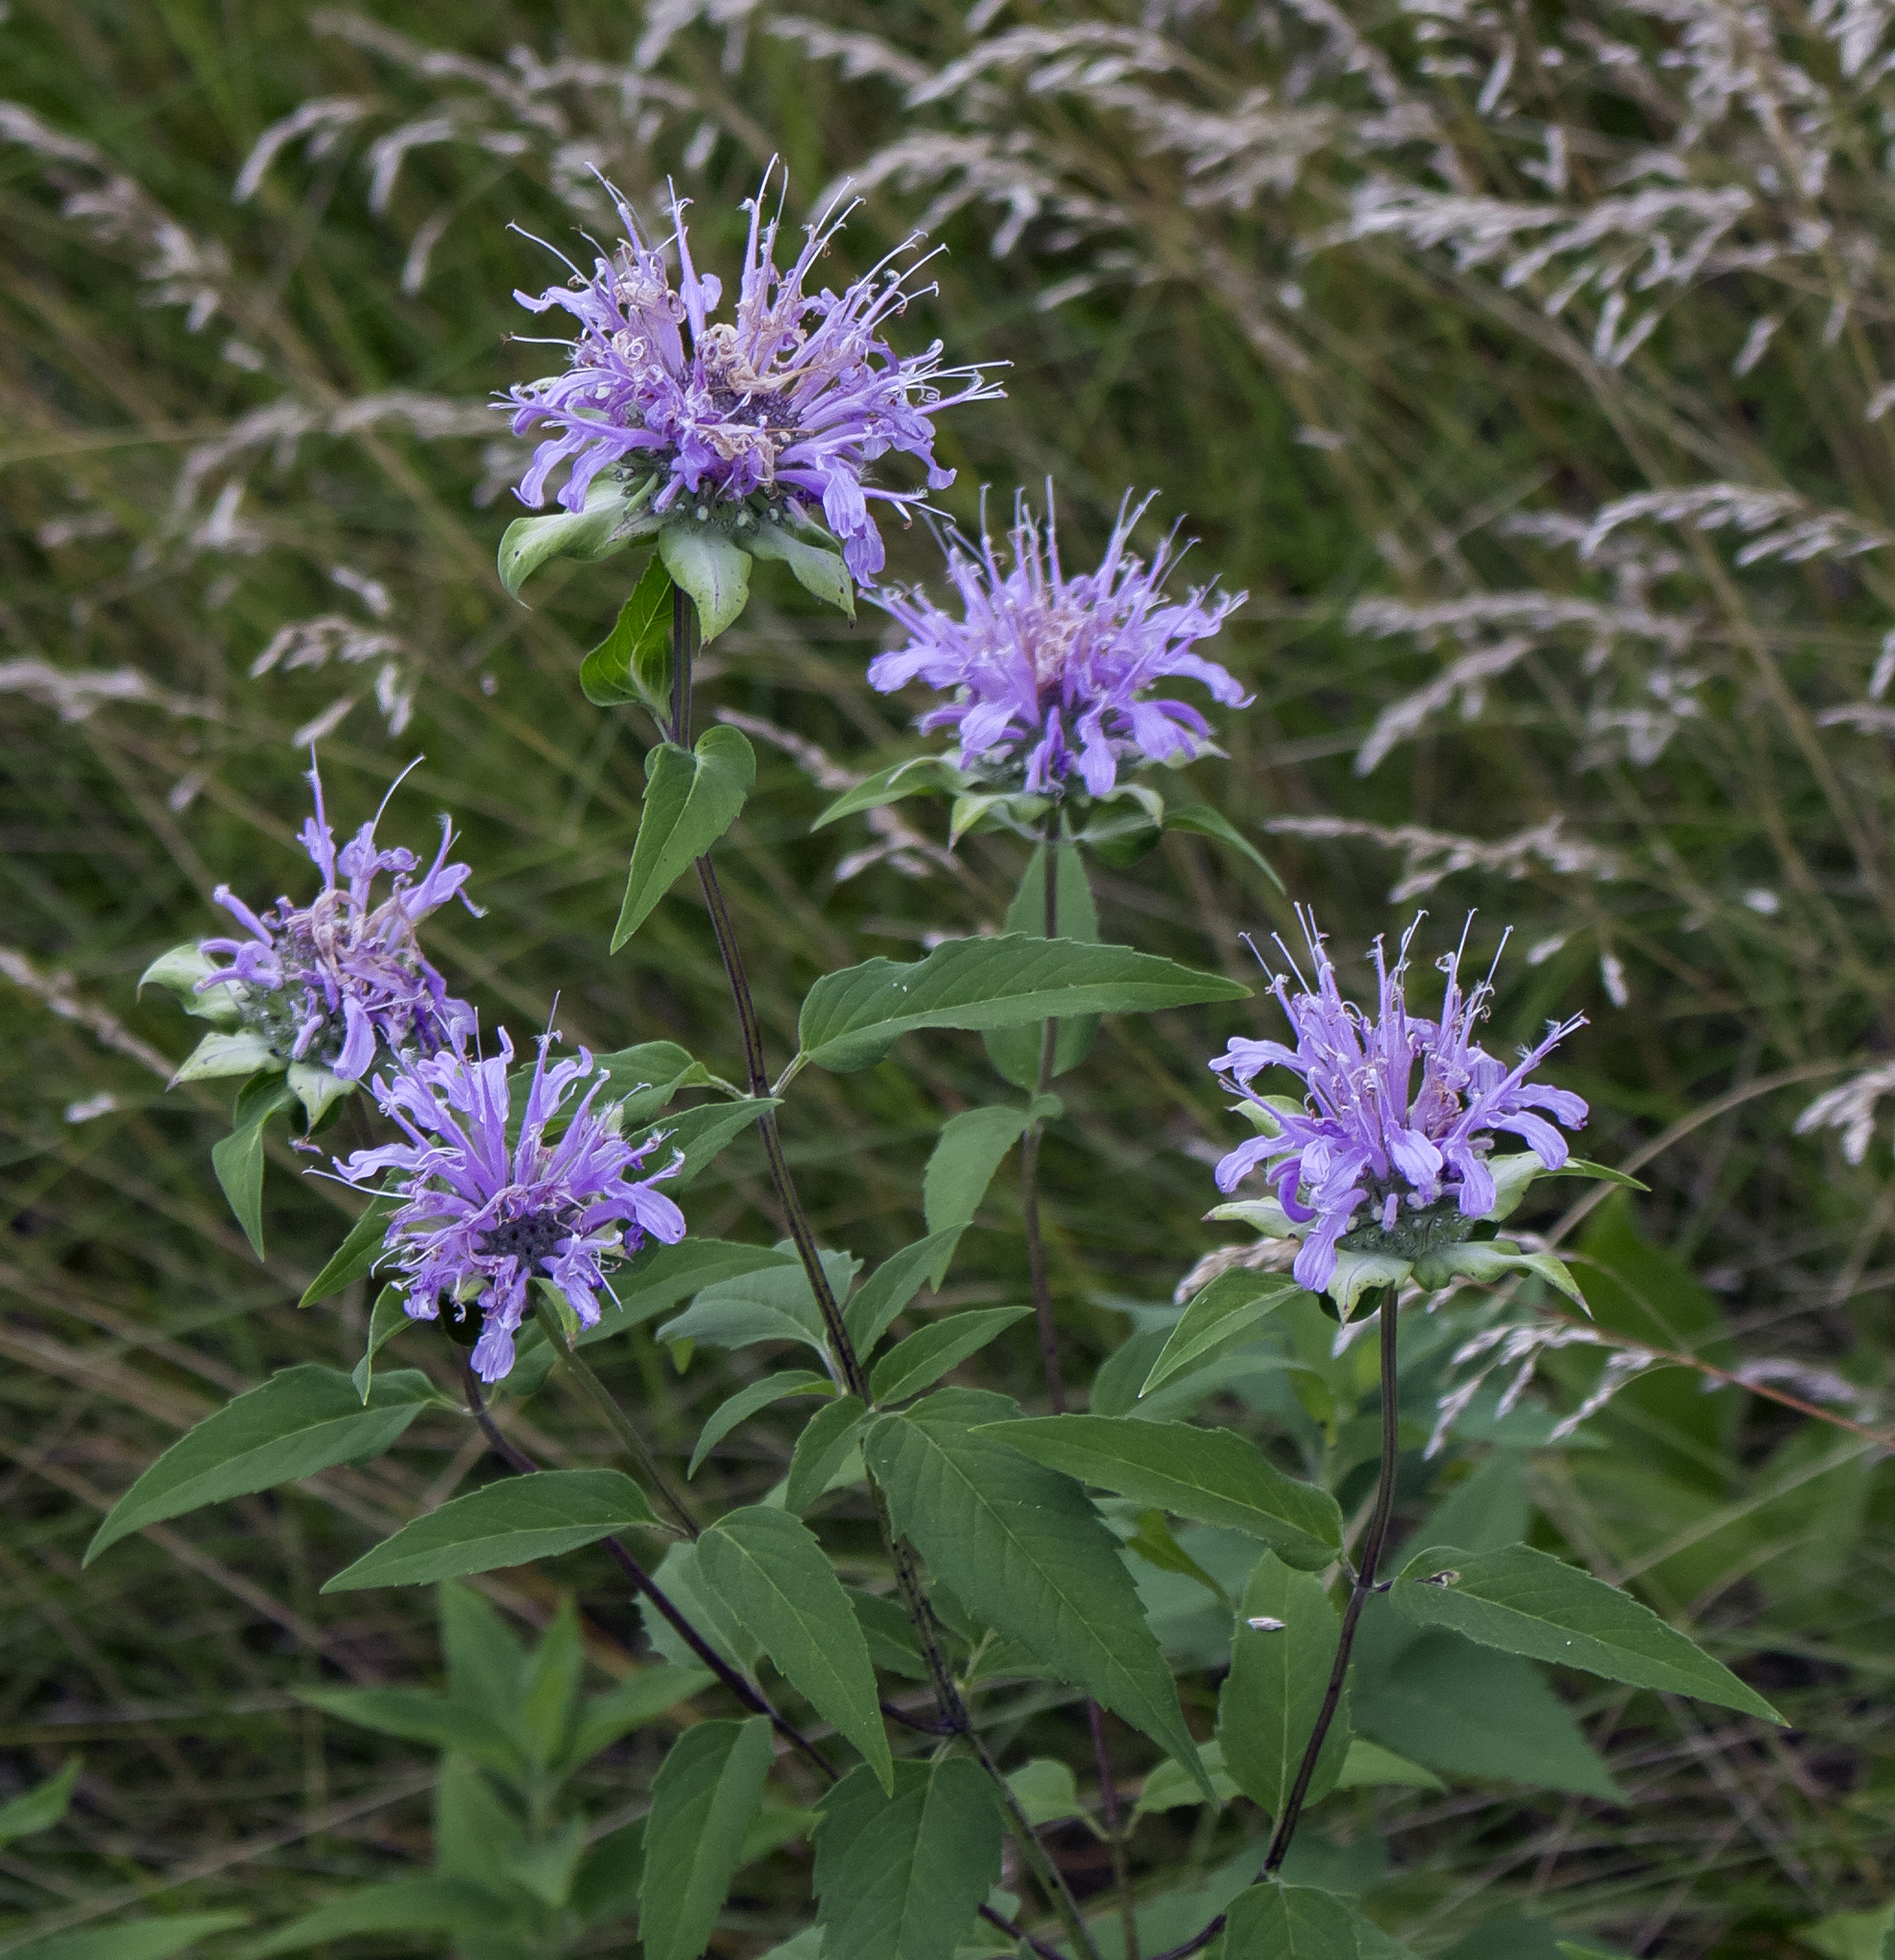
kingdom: Plantae
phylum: Tracheophyta
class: Magnoliopsida
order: Lamiales
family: Lamiaceae
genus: Monarda
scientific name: Monarda fistulosa
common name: Purple beebalm
